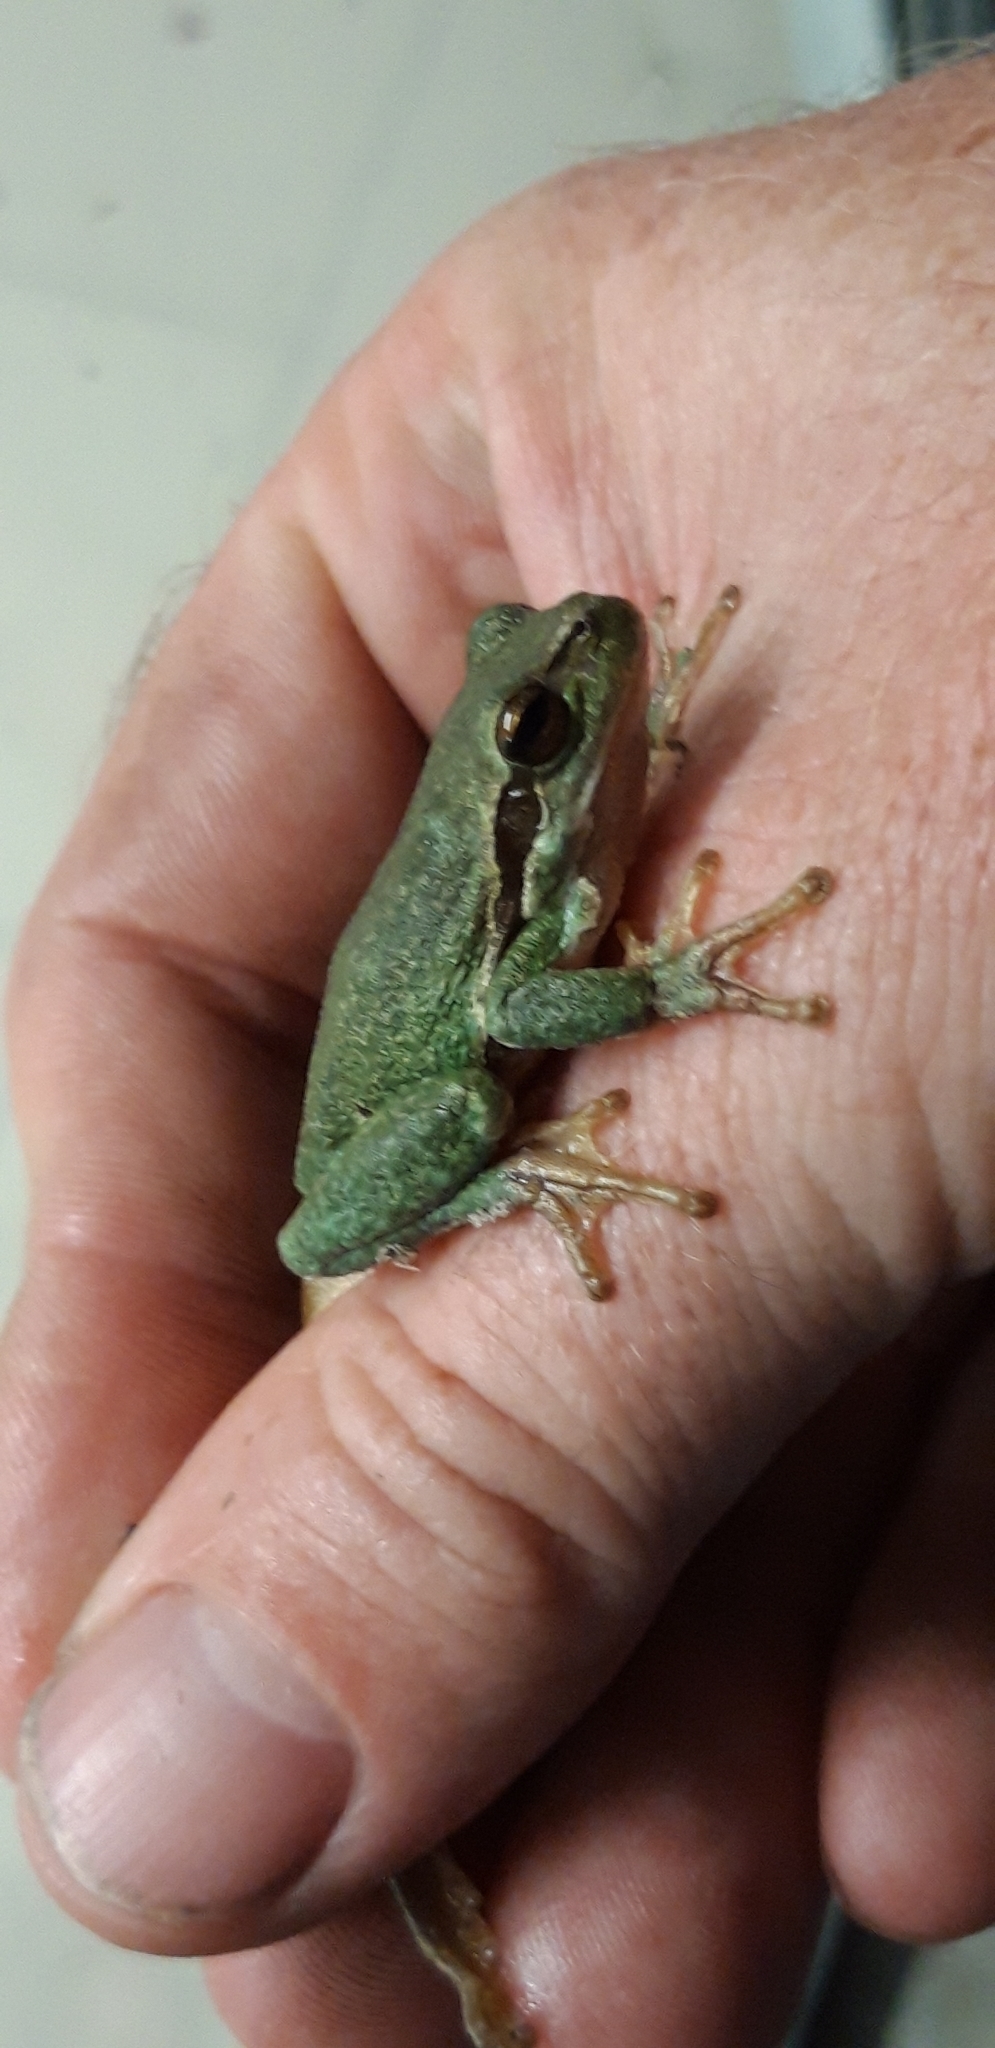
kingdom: Animalia
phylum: Chordata
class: Amphibia
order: Anura
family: Hylidae
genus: Hyla
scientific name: Hyla arborea
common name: Common tree frog
